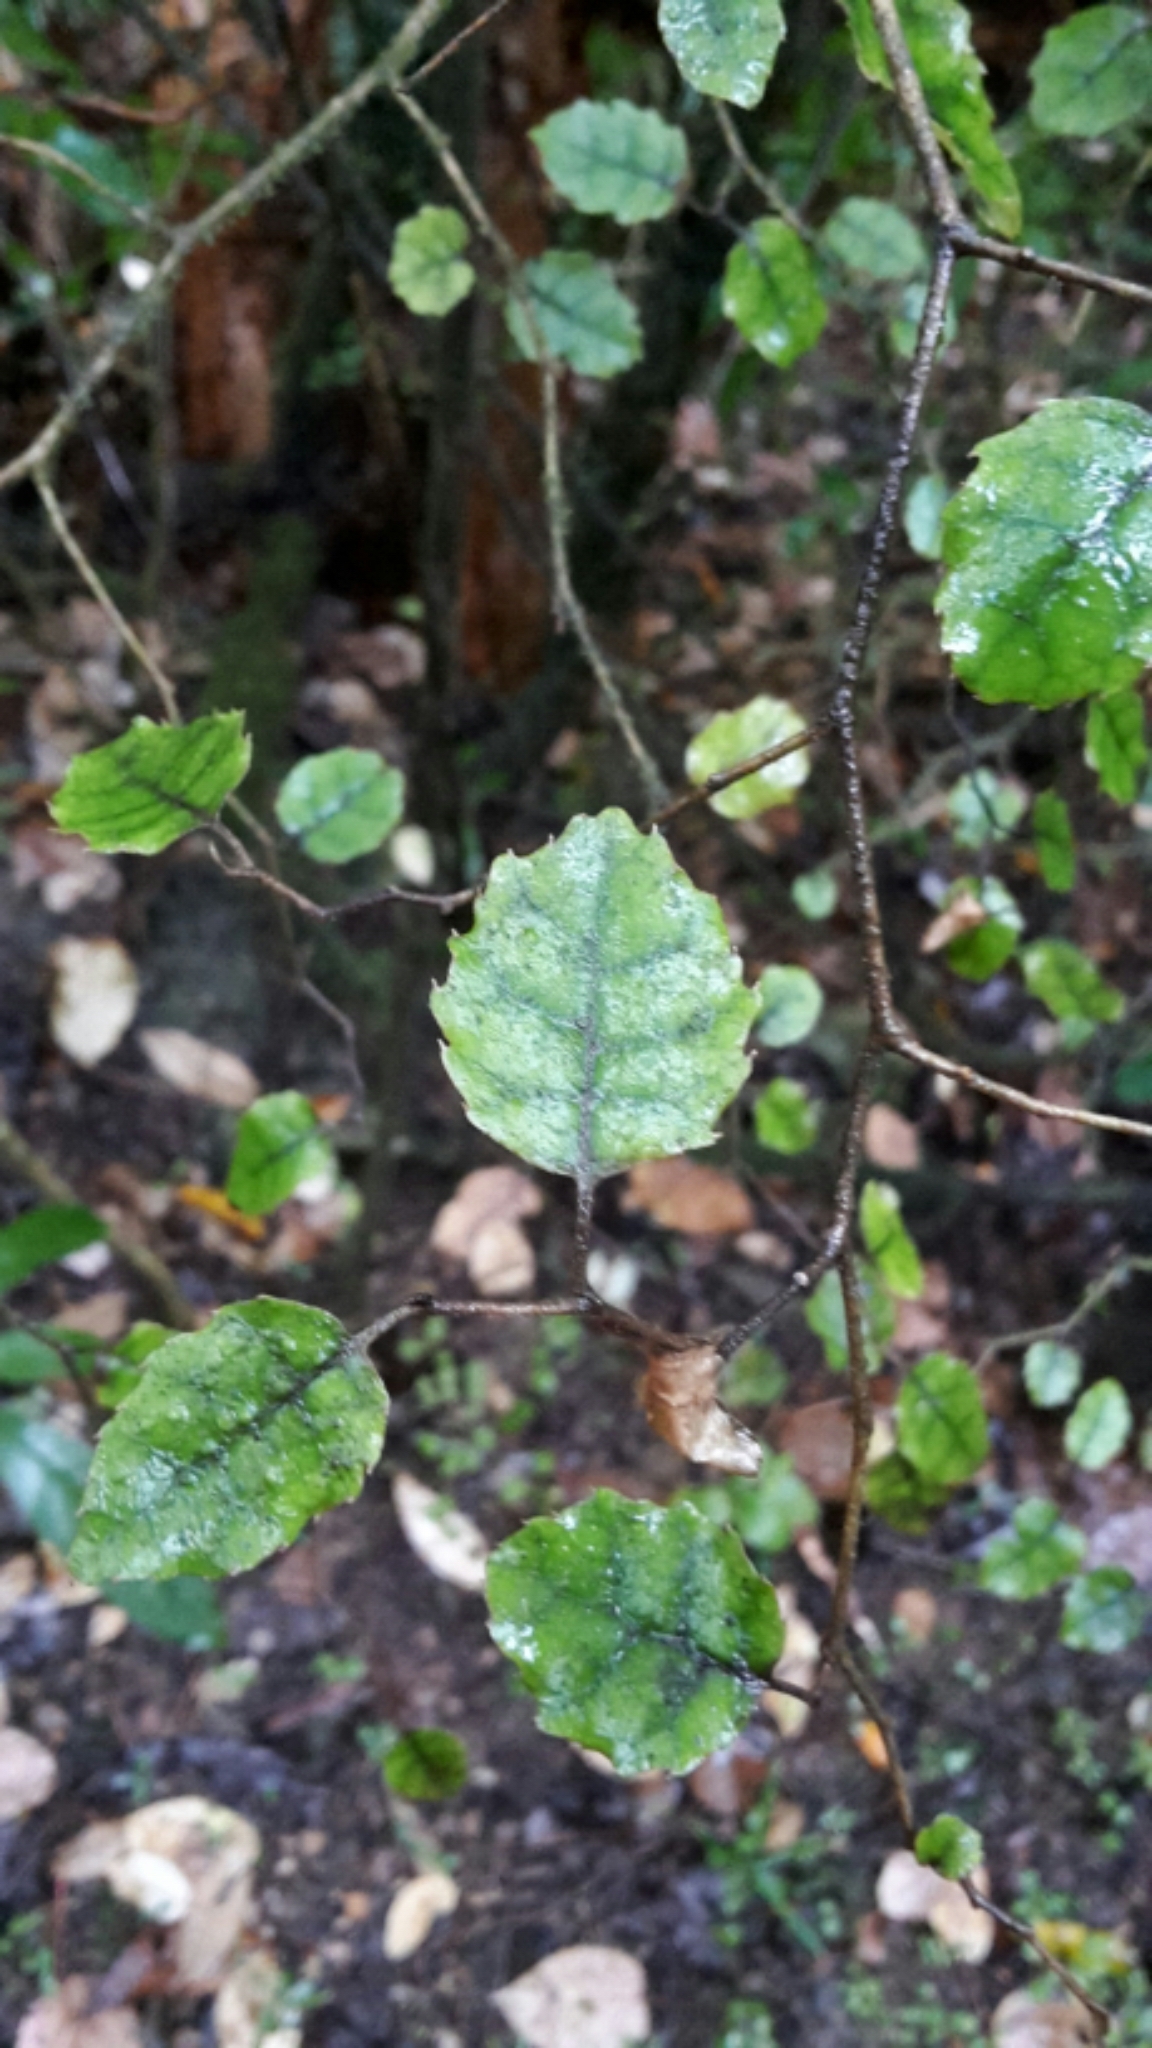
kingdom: Plantae
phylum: Tracheophyta
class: Magnoliopsida
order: Asterales
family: Rousseaceae
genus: Carpodetus
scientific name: Carpodetus serratus
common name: White mapau
